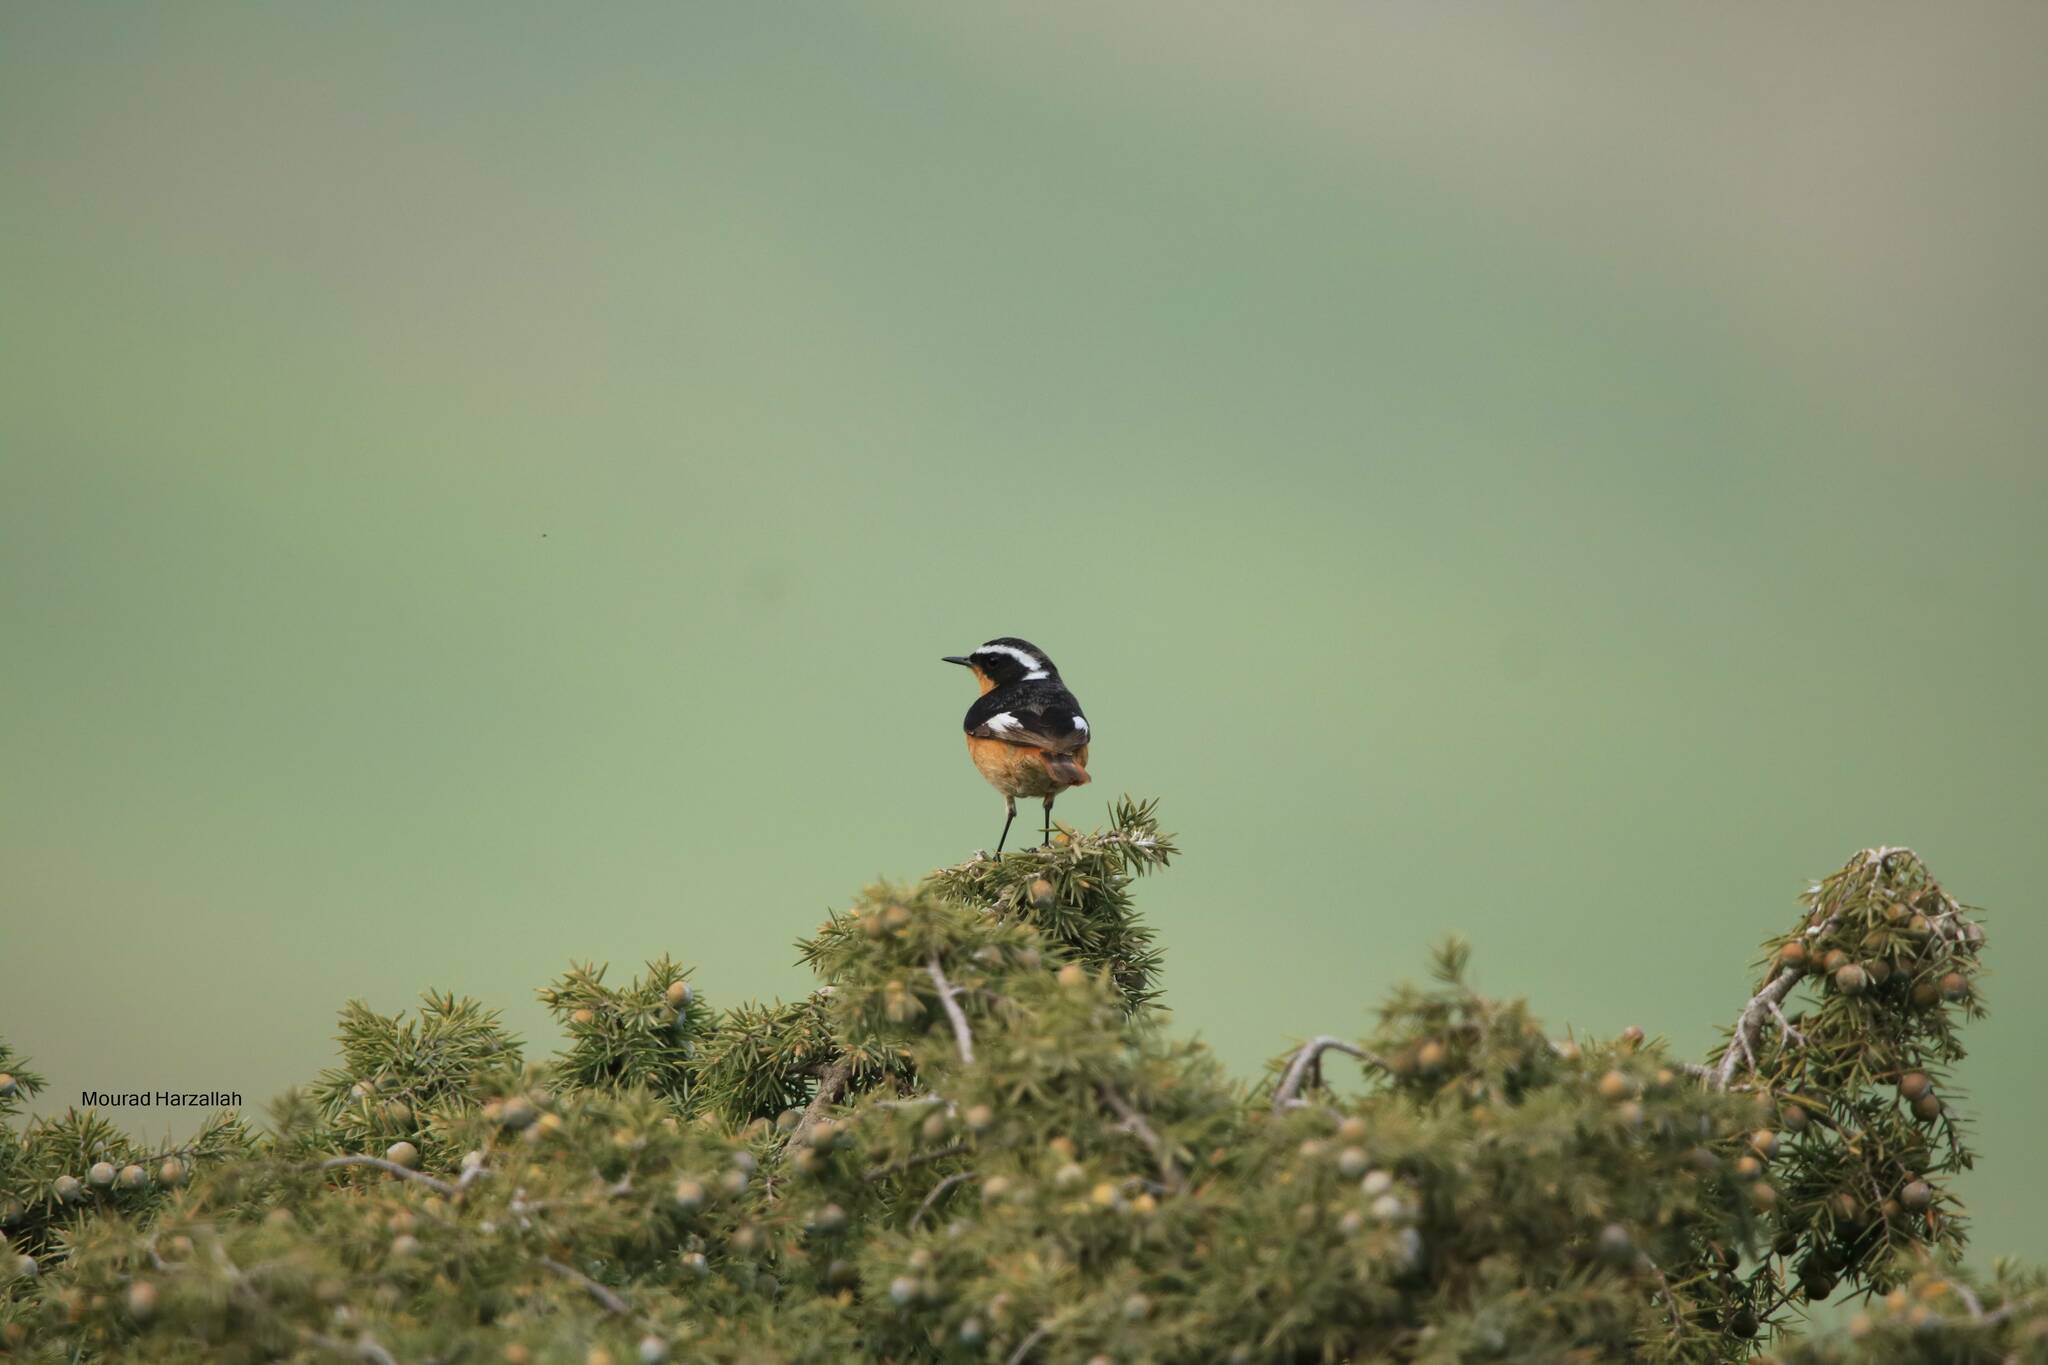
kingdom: Animalia
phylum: Chordata
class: Aves
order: Passeriformes
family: Muscicapidae
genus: Phoenicurus
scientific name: Phoenicurus moussieri
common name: Moussier's redstart
